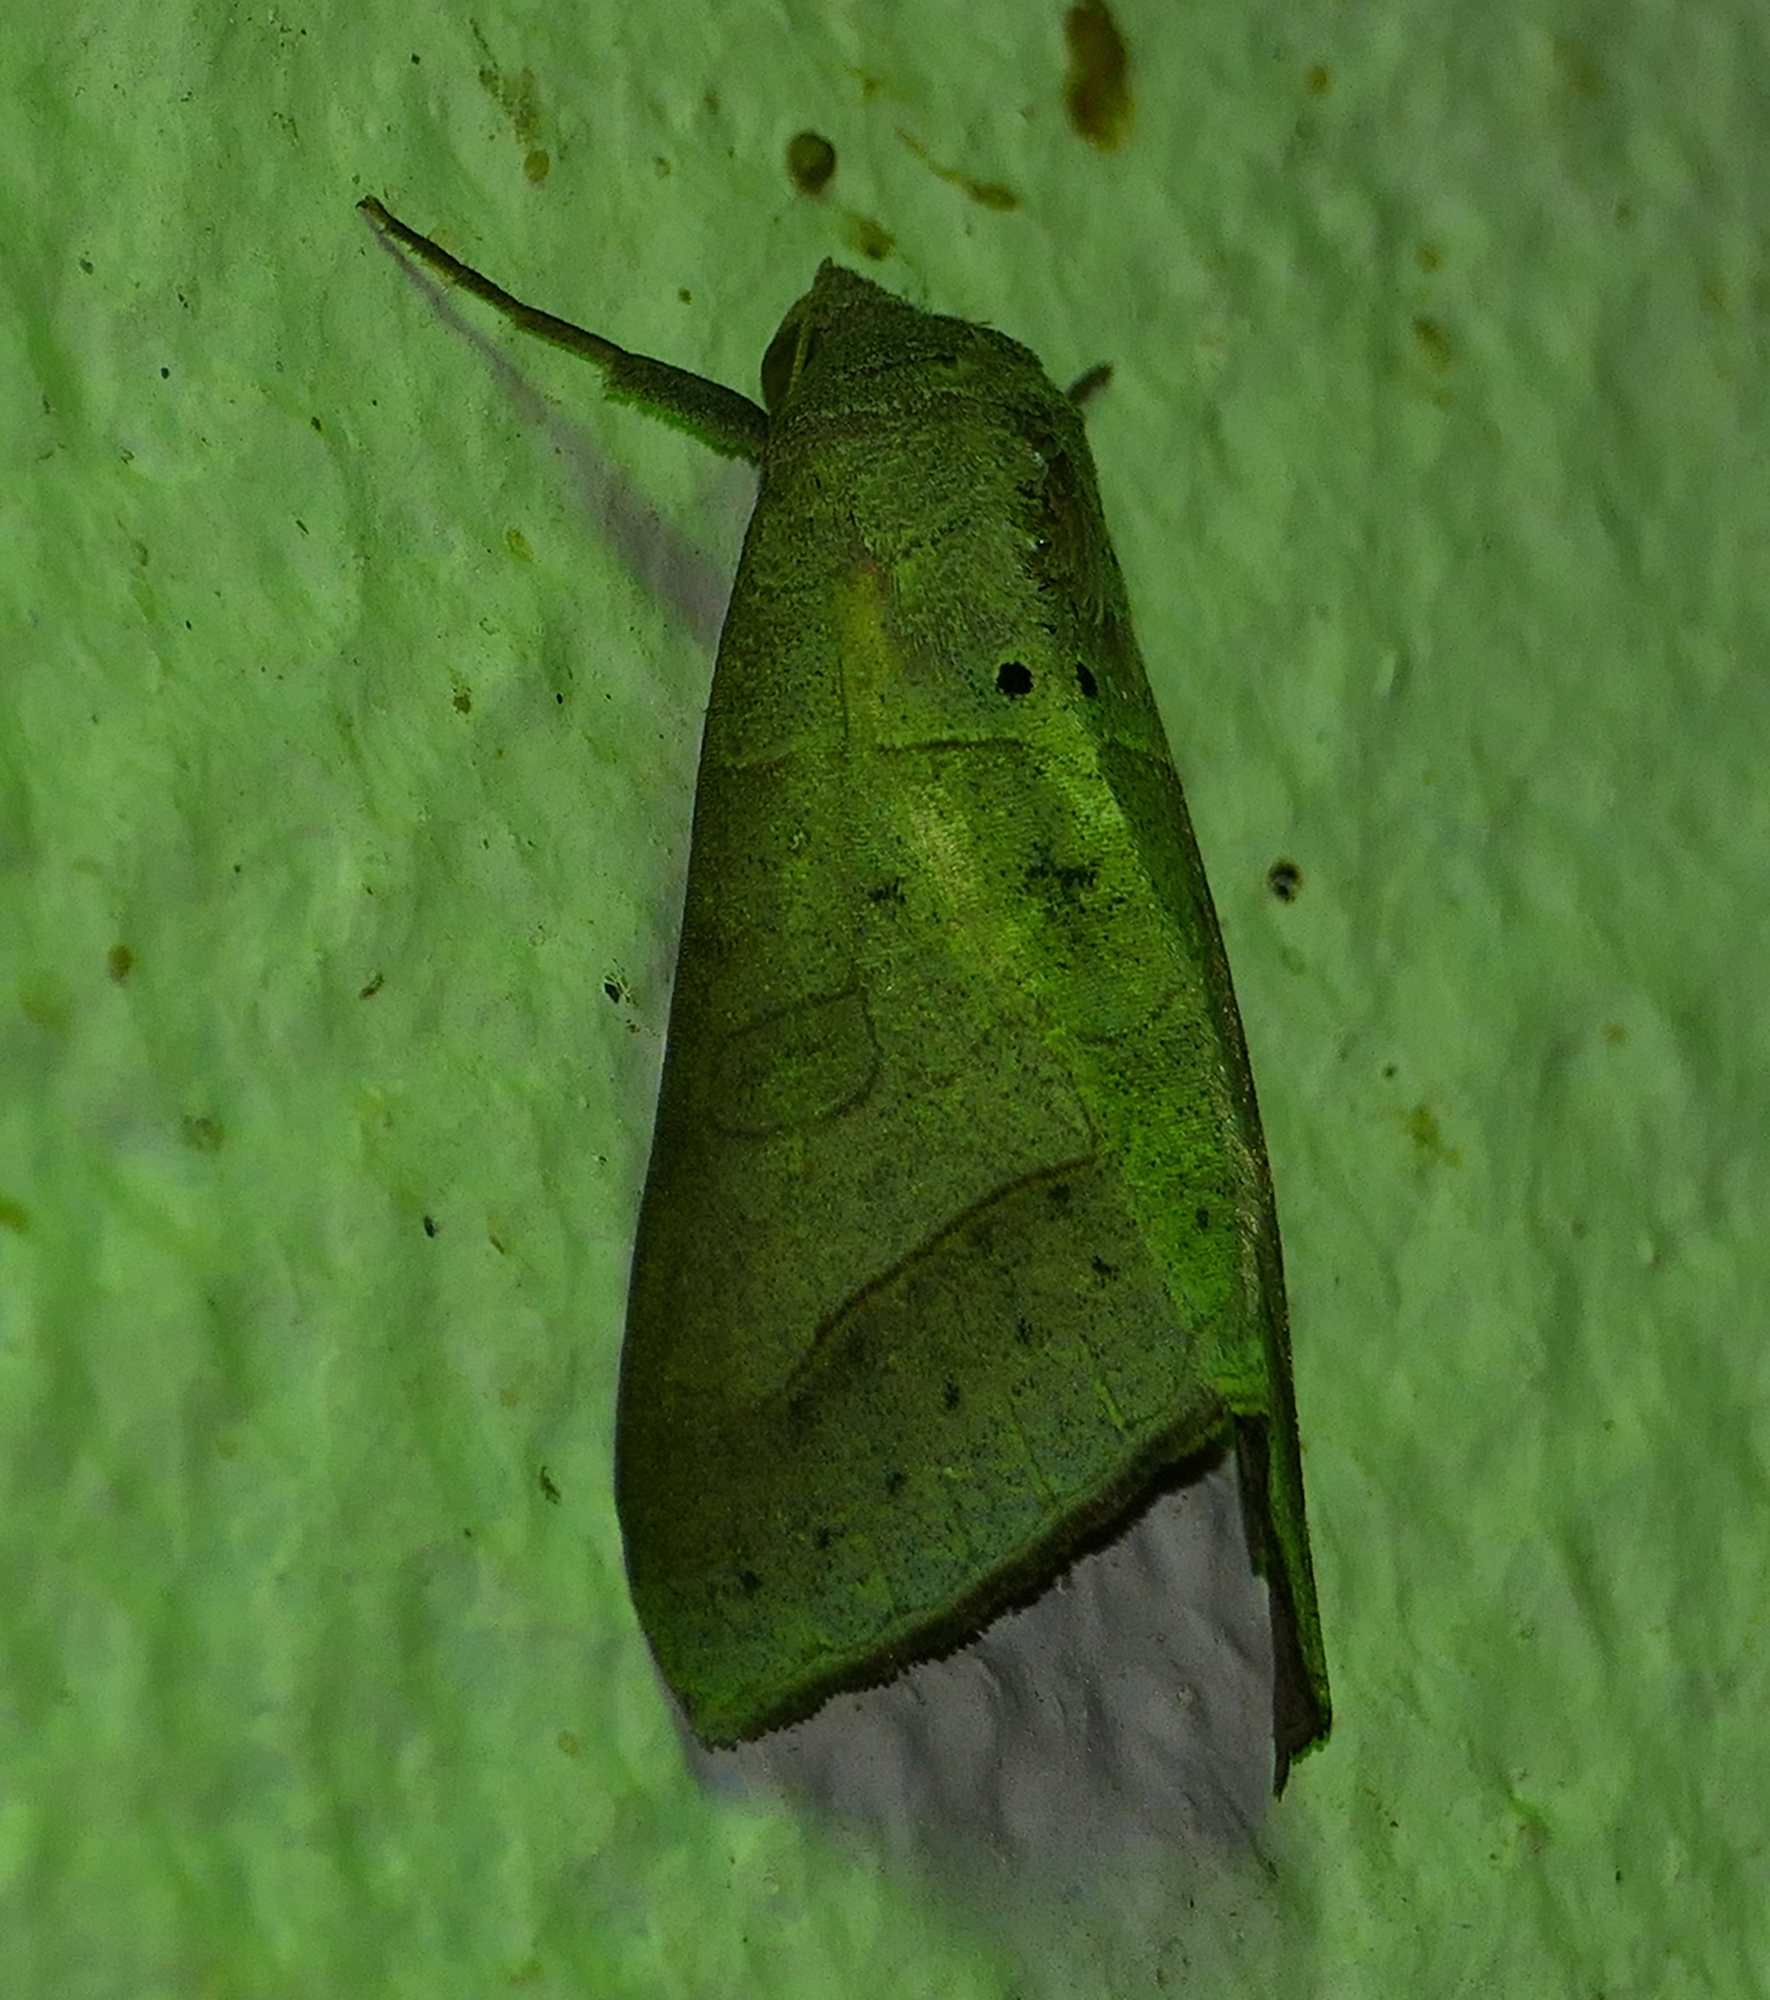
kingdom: Animalia
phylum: Arthropoda
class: Insecta
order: Lepidoptera
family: Erebidae
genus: Mocis
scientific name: Mocis marcida
